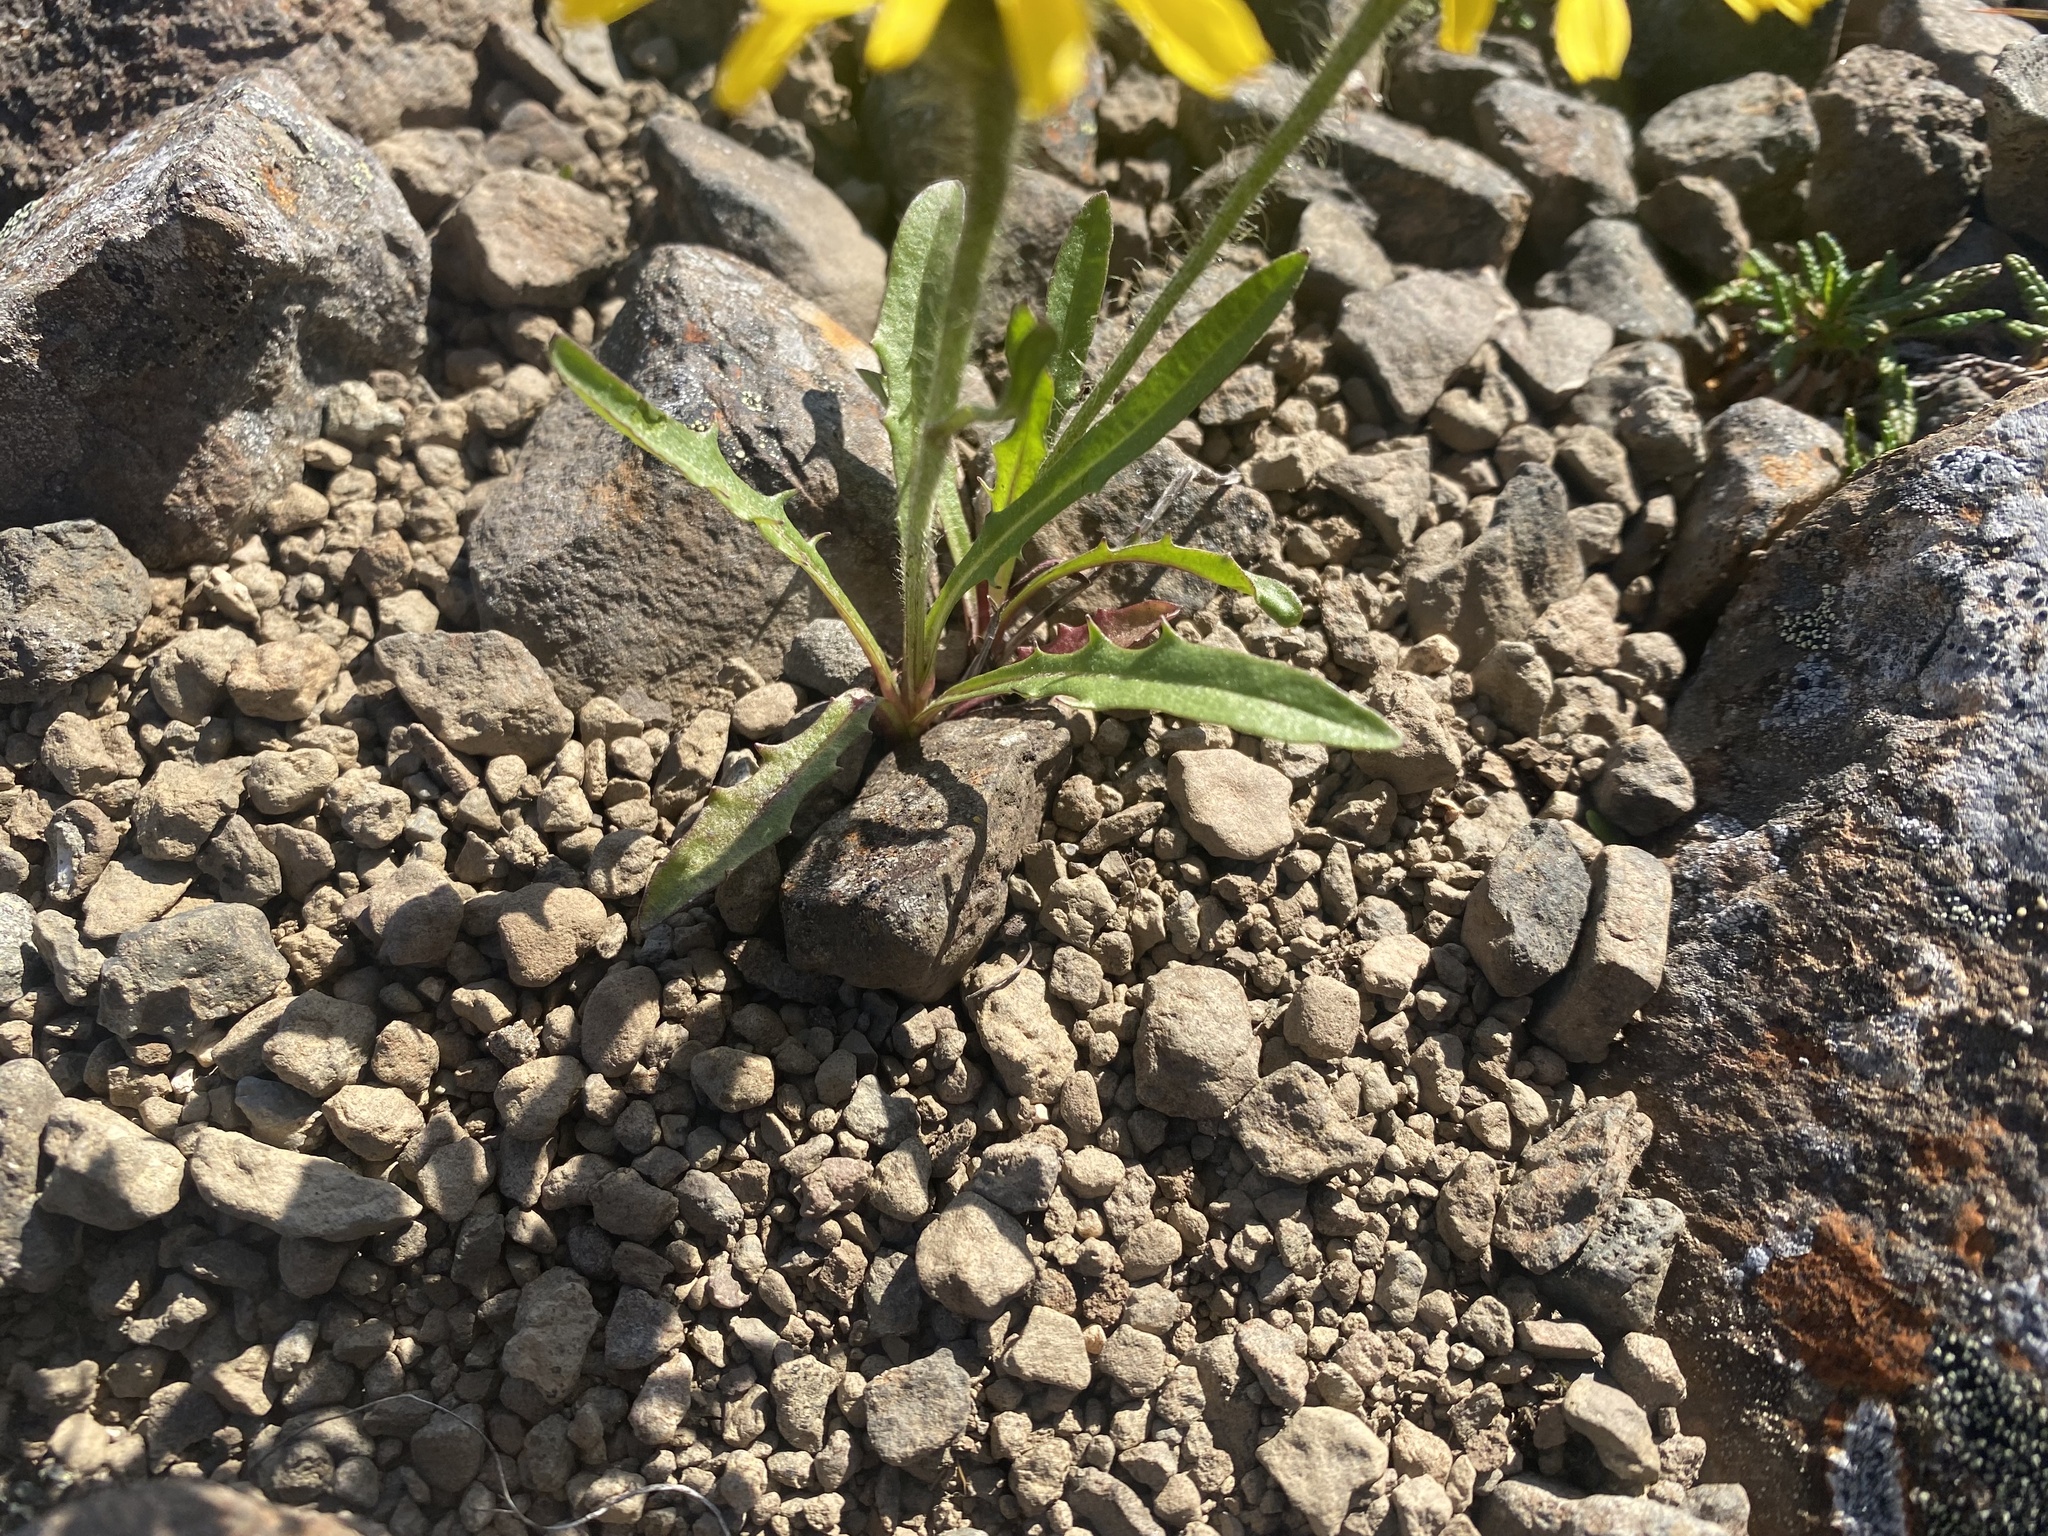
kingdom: Plantae
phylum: Tracheophyta
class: Magnoliopsida
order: Asterales
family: Asteraceae
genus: Crepis
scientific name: Crepis chrysantha
